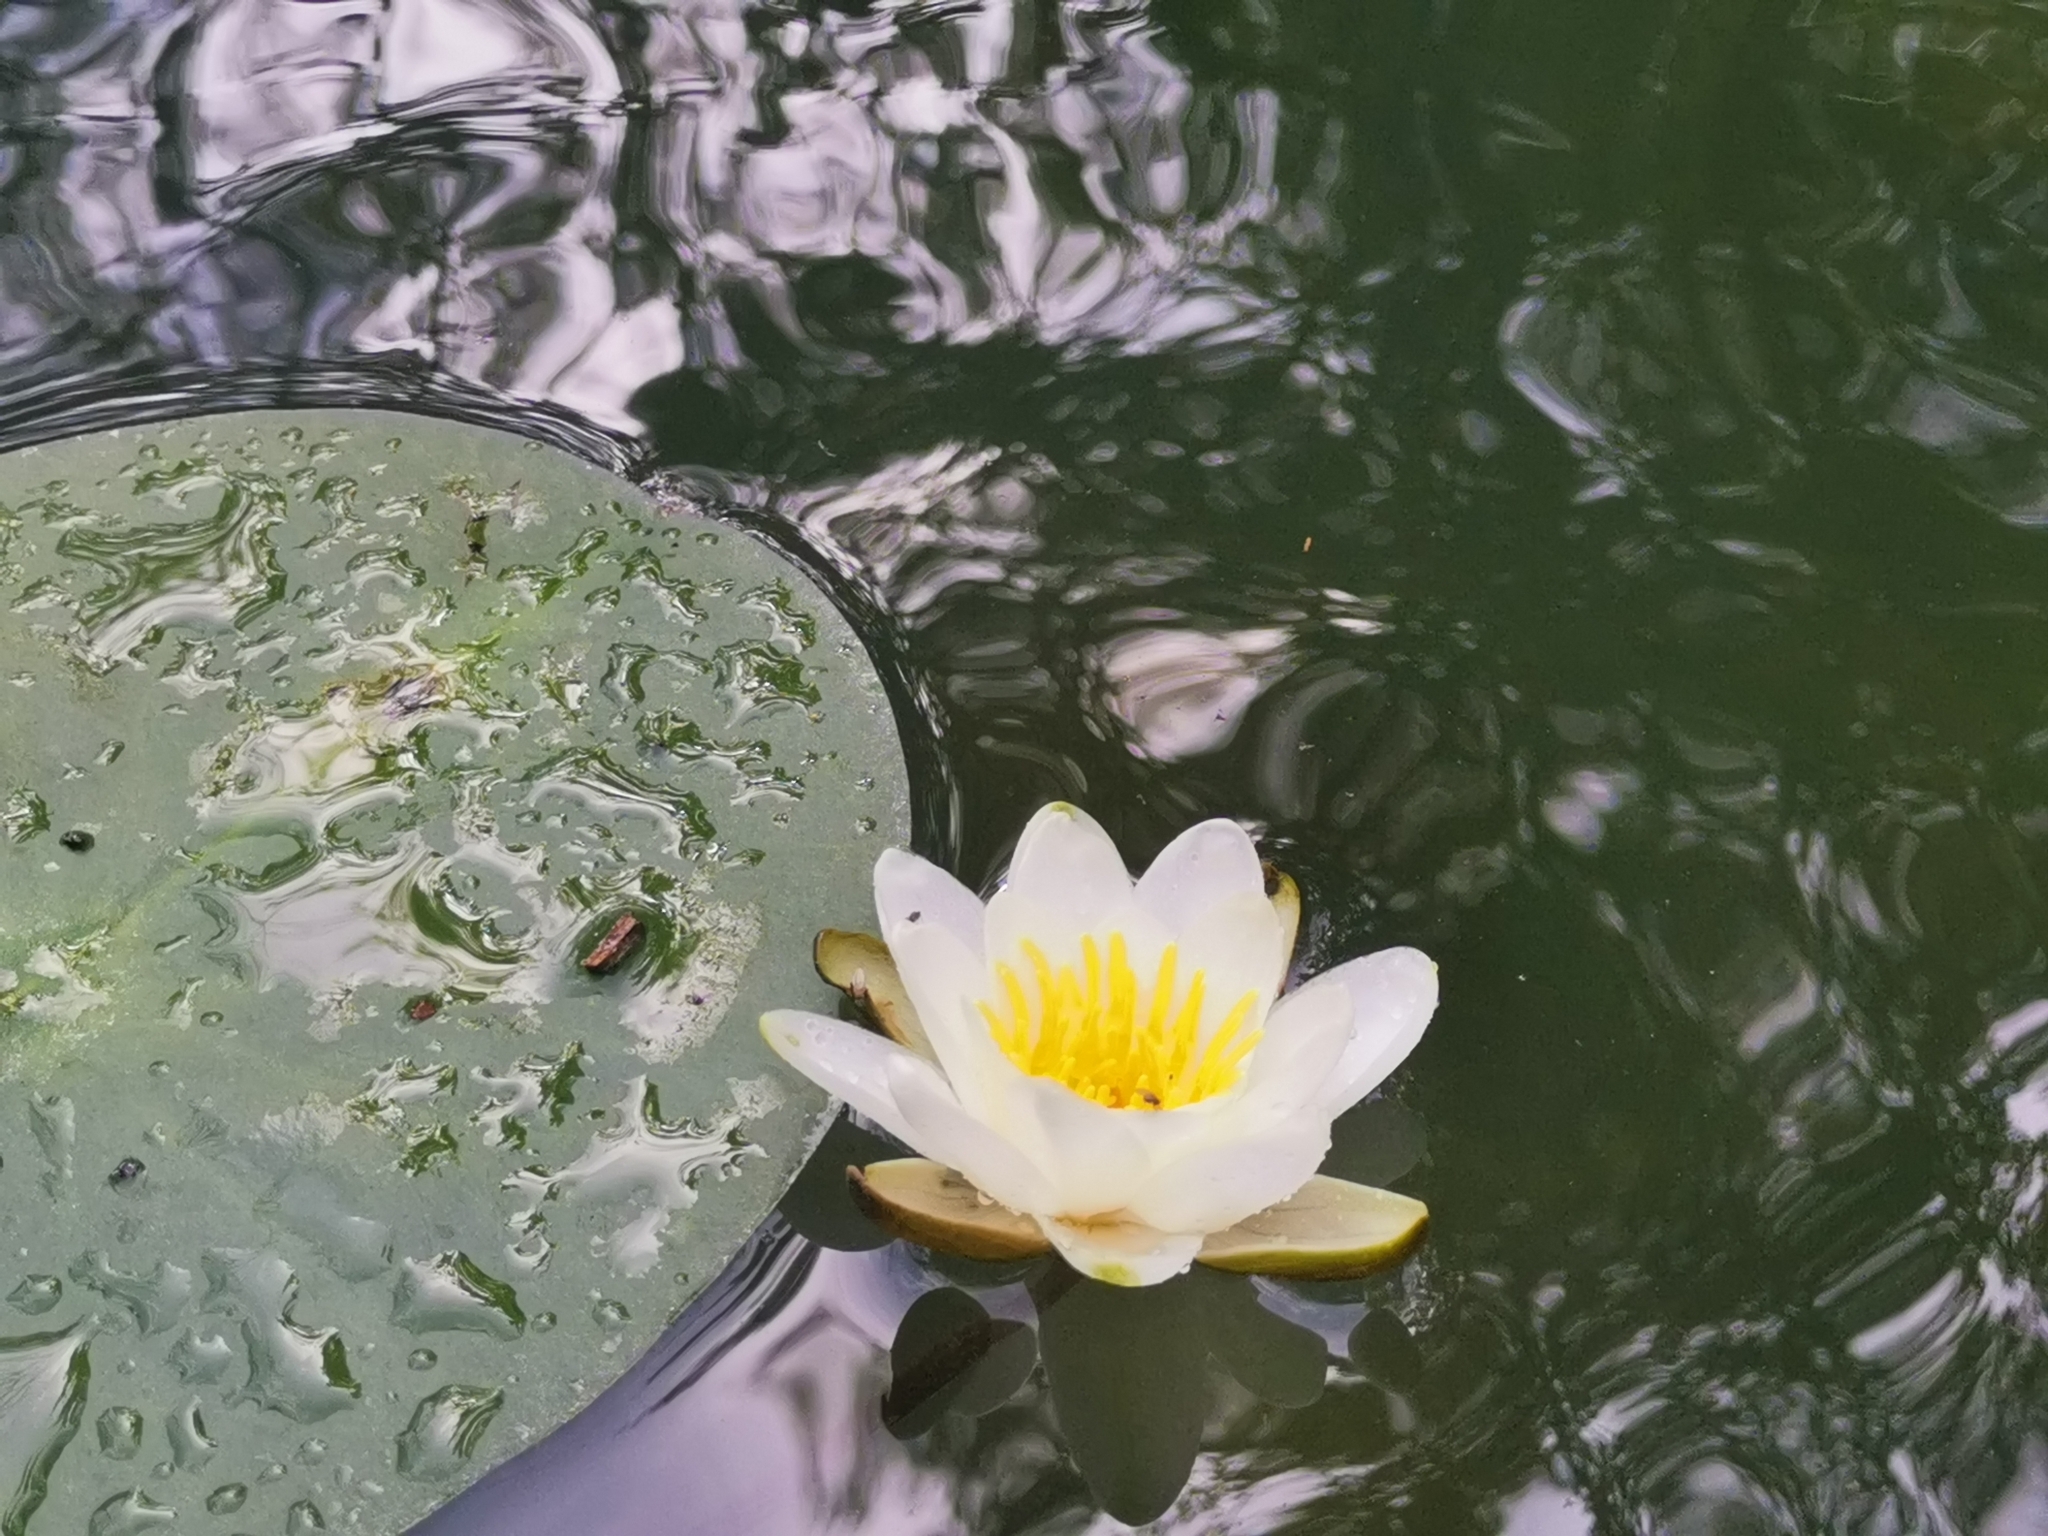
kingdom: Plantae
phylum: Tracheophyta
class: Magnoliopsida
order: Nymphaeales
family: Nymphaeaceae
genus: Nymphaea
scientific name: Nymphaea alba
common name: White water-lily
